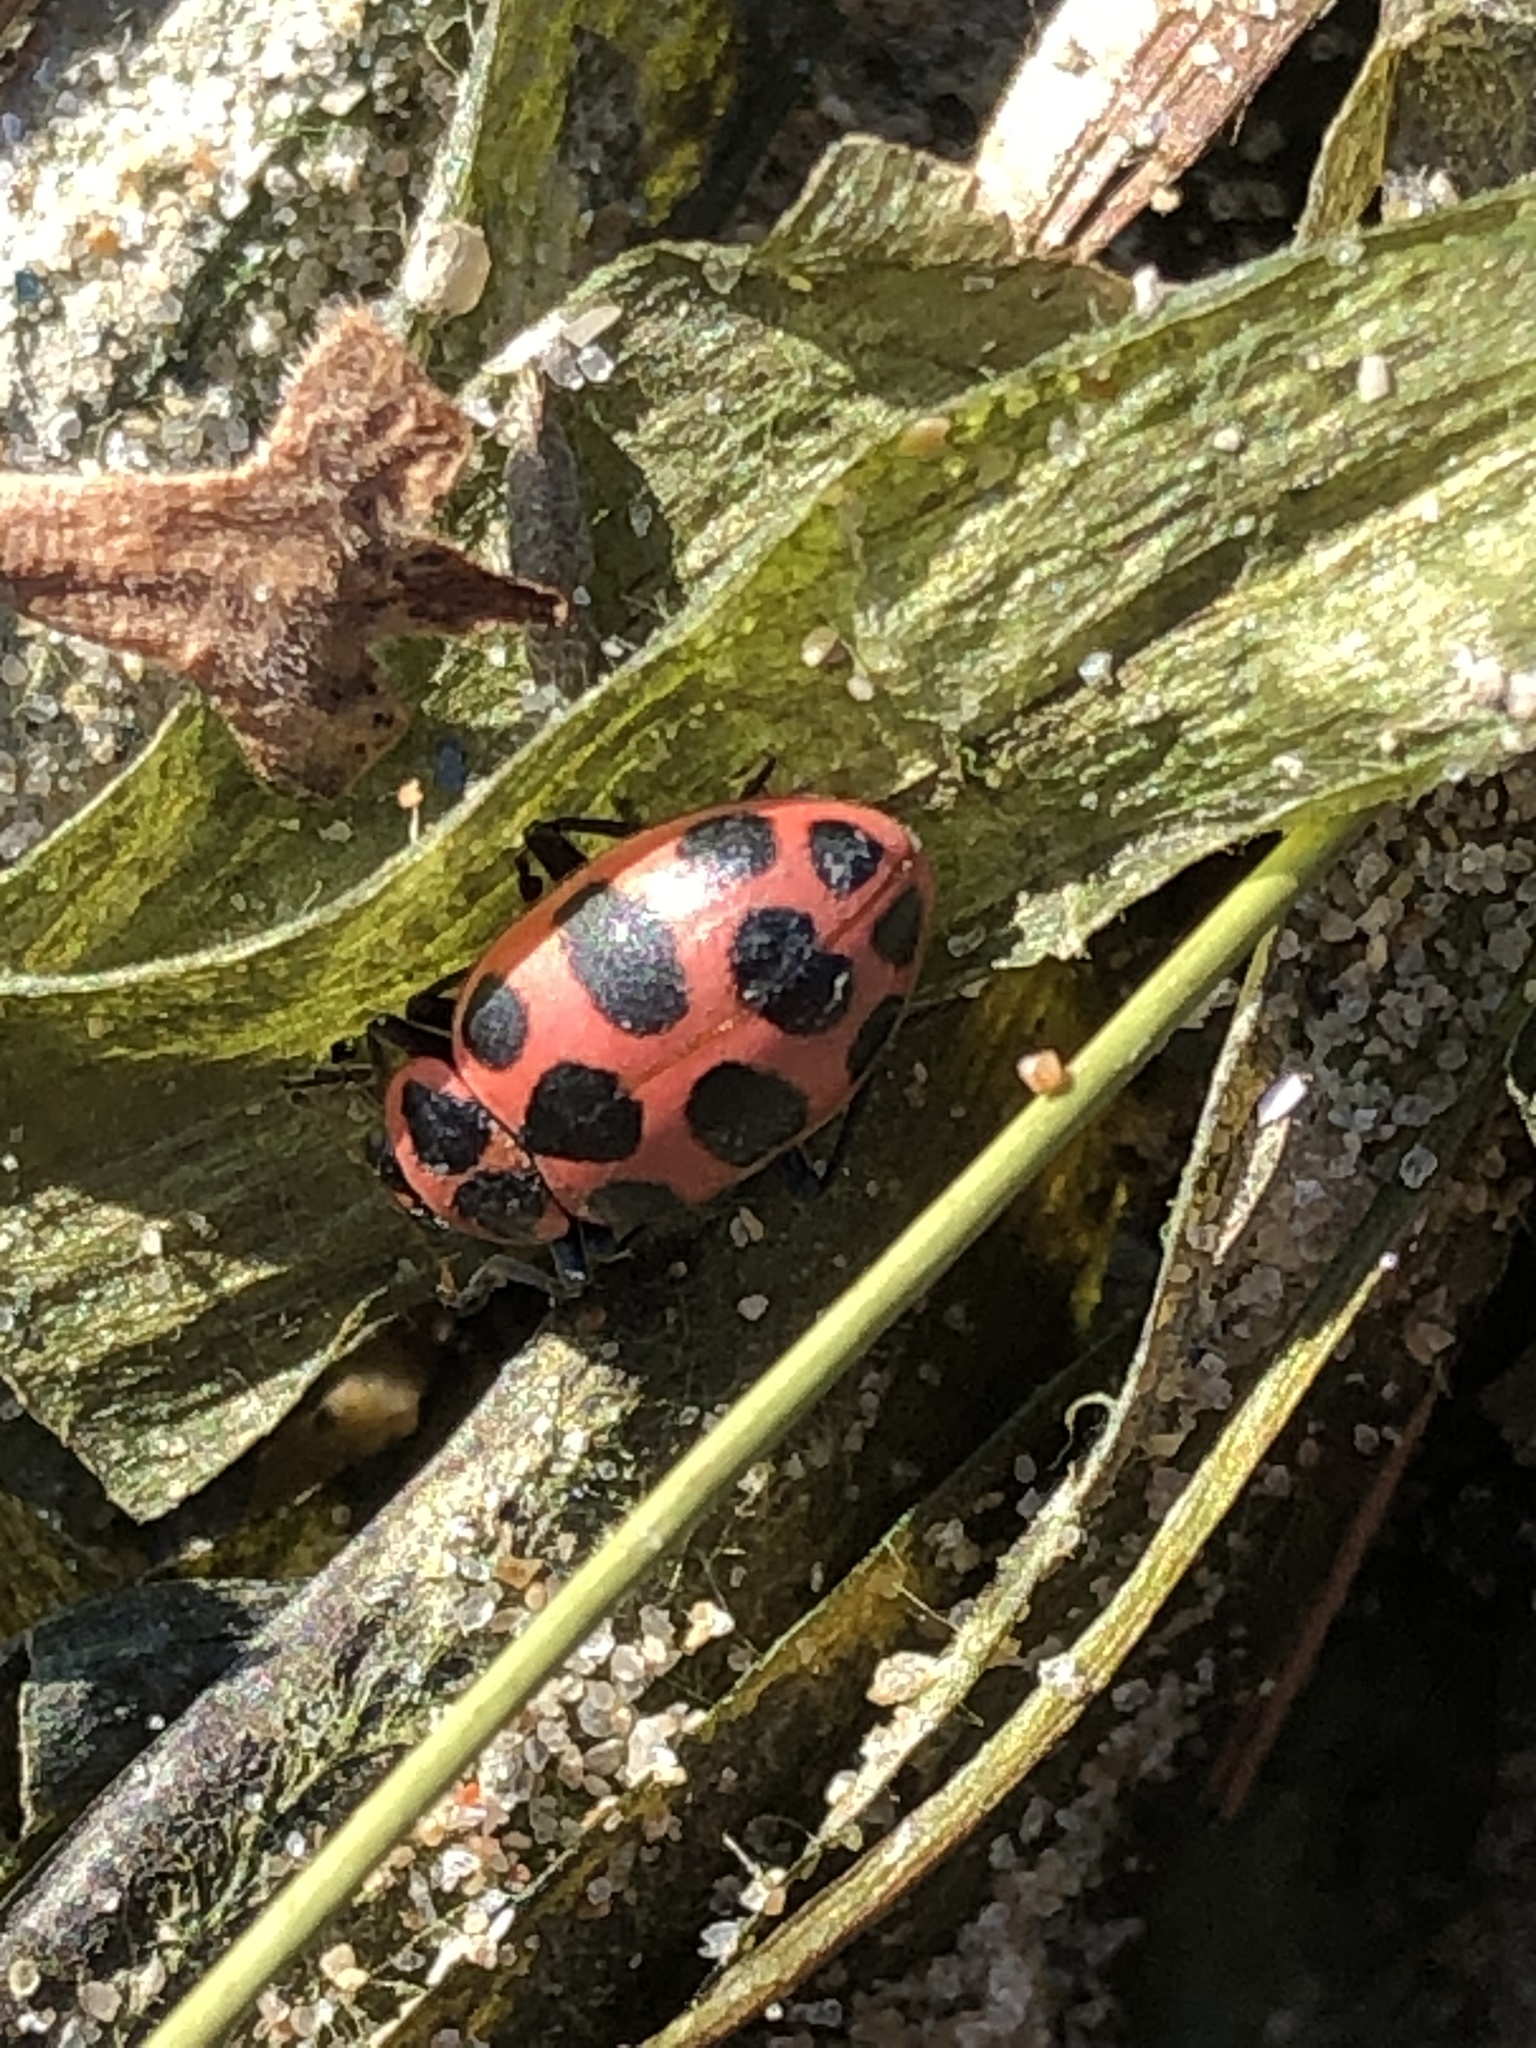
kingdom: Animalia
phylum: Arthropoda
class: Insecta
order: Coleoptera
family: Coccinellidae
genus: Coleomegilla
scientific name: Coleomegilla maculata
